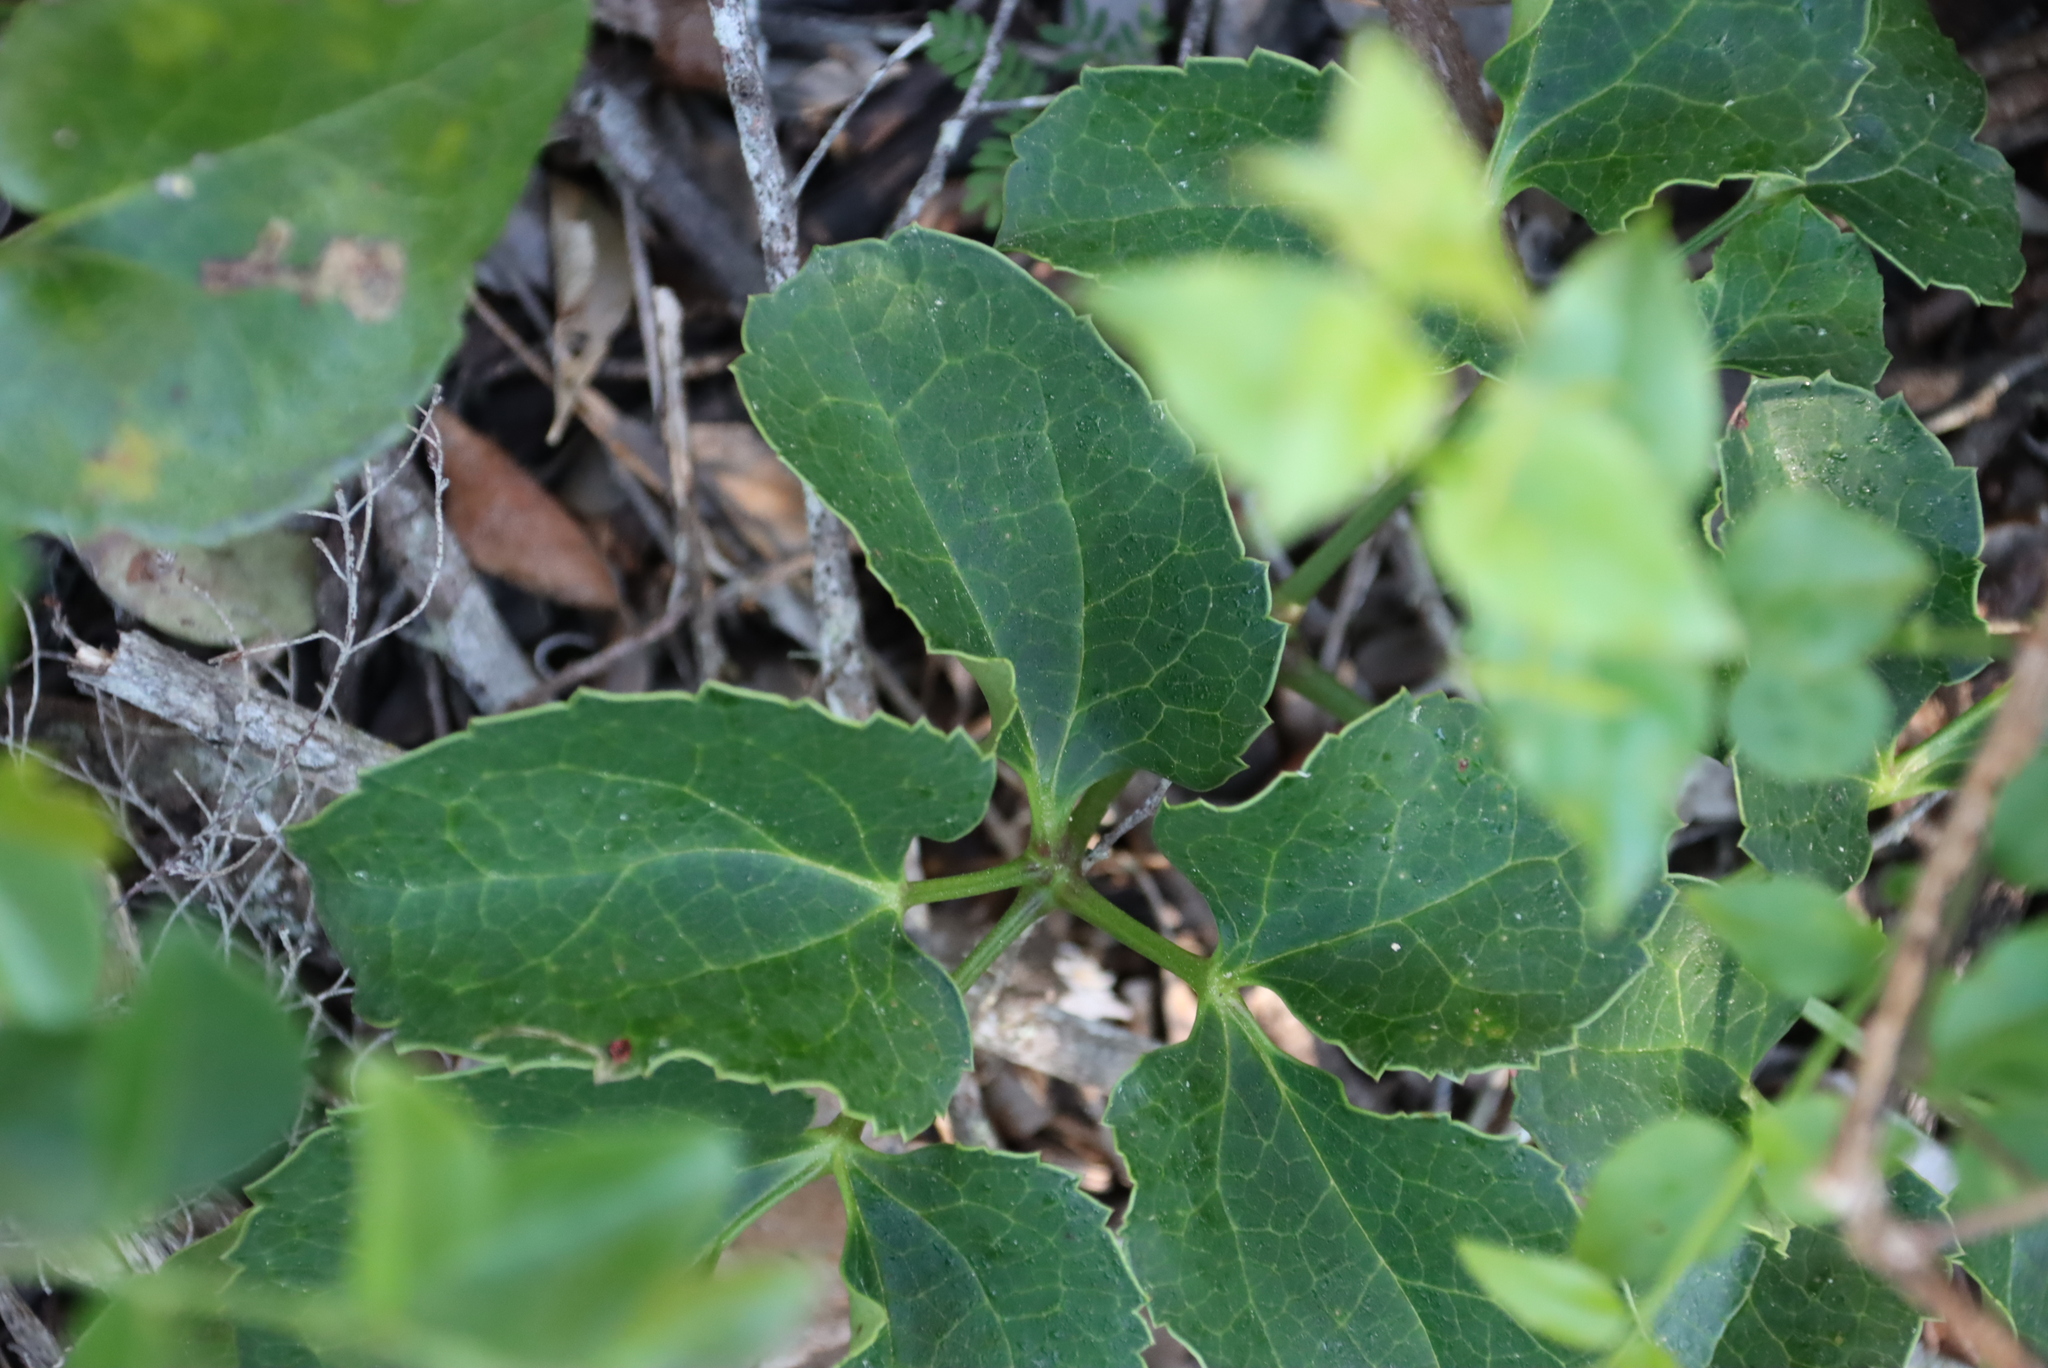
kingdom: Plantae
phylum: Tracheophyta
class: Magnoliopsida
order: Ranunculales
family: Ranunculaceae
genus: Knowltonia
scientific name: Knowltonia vesicatoria
